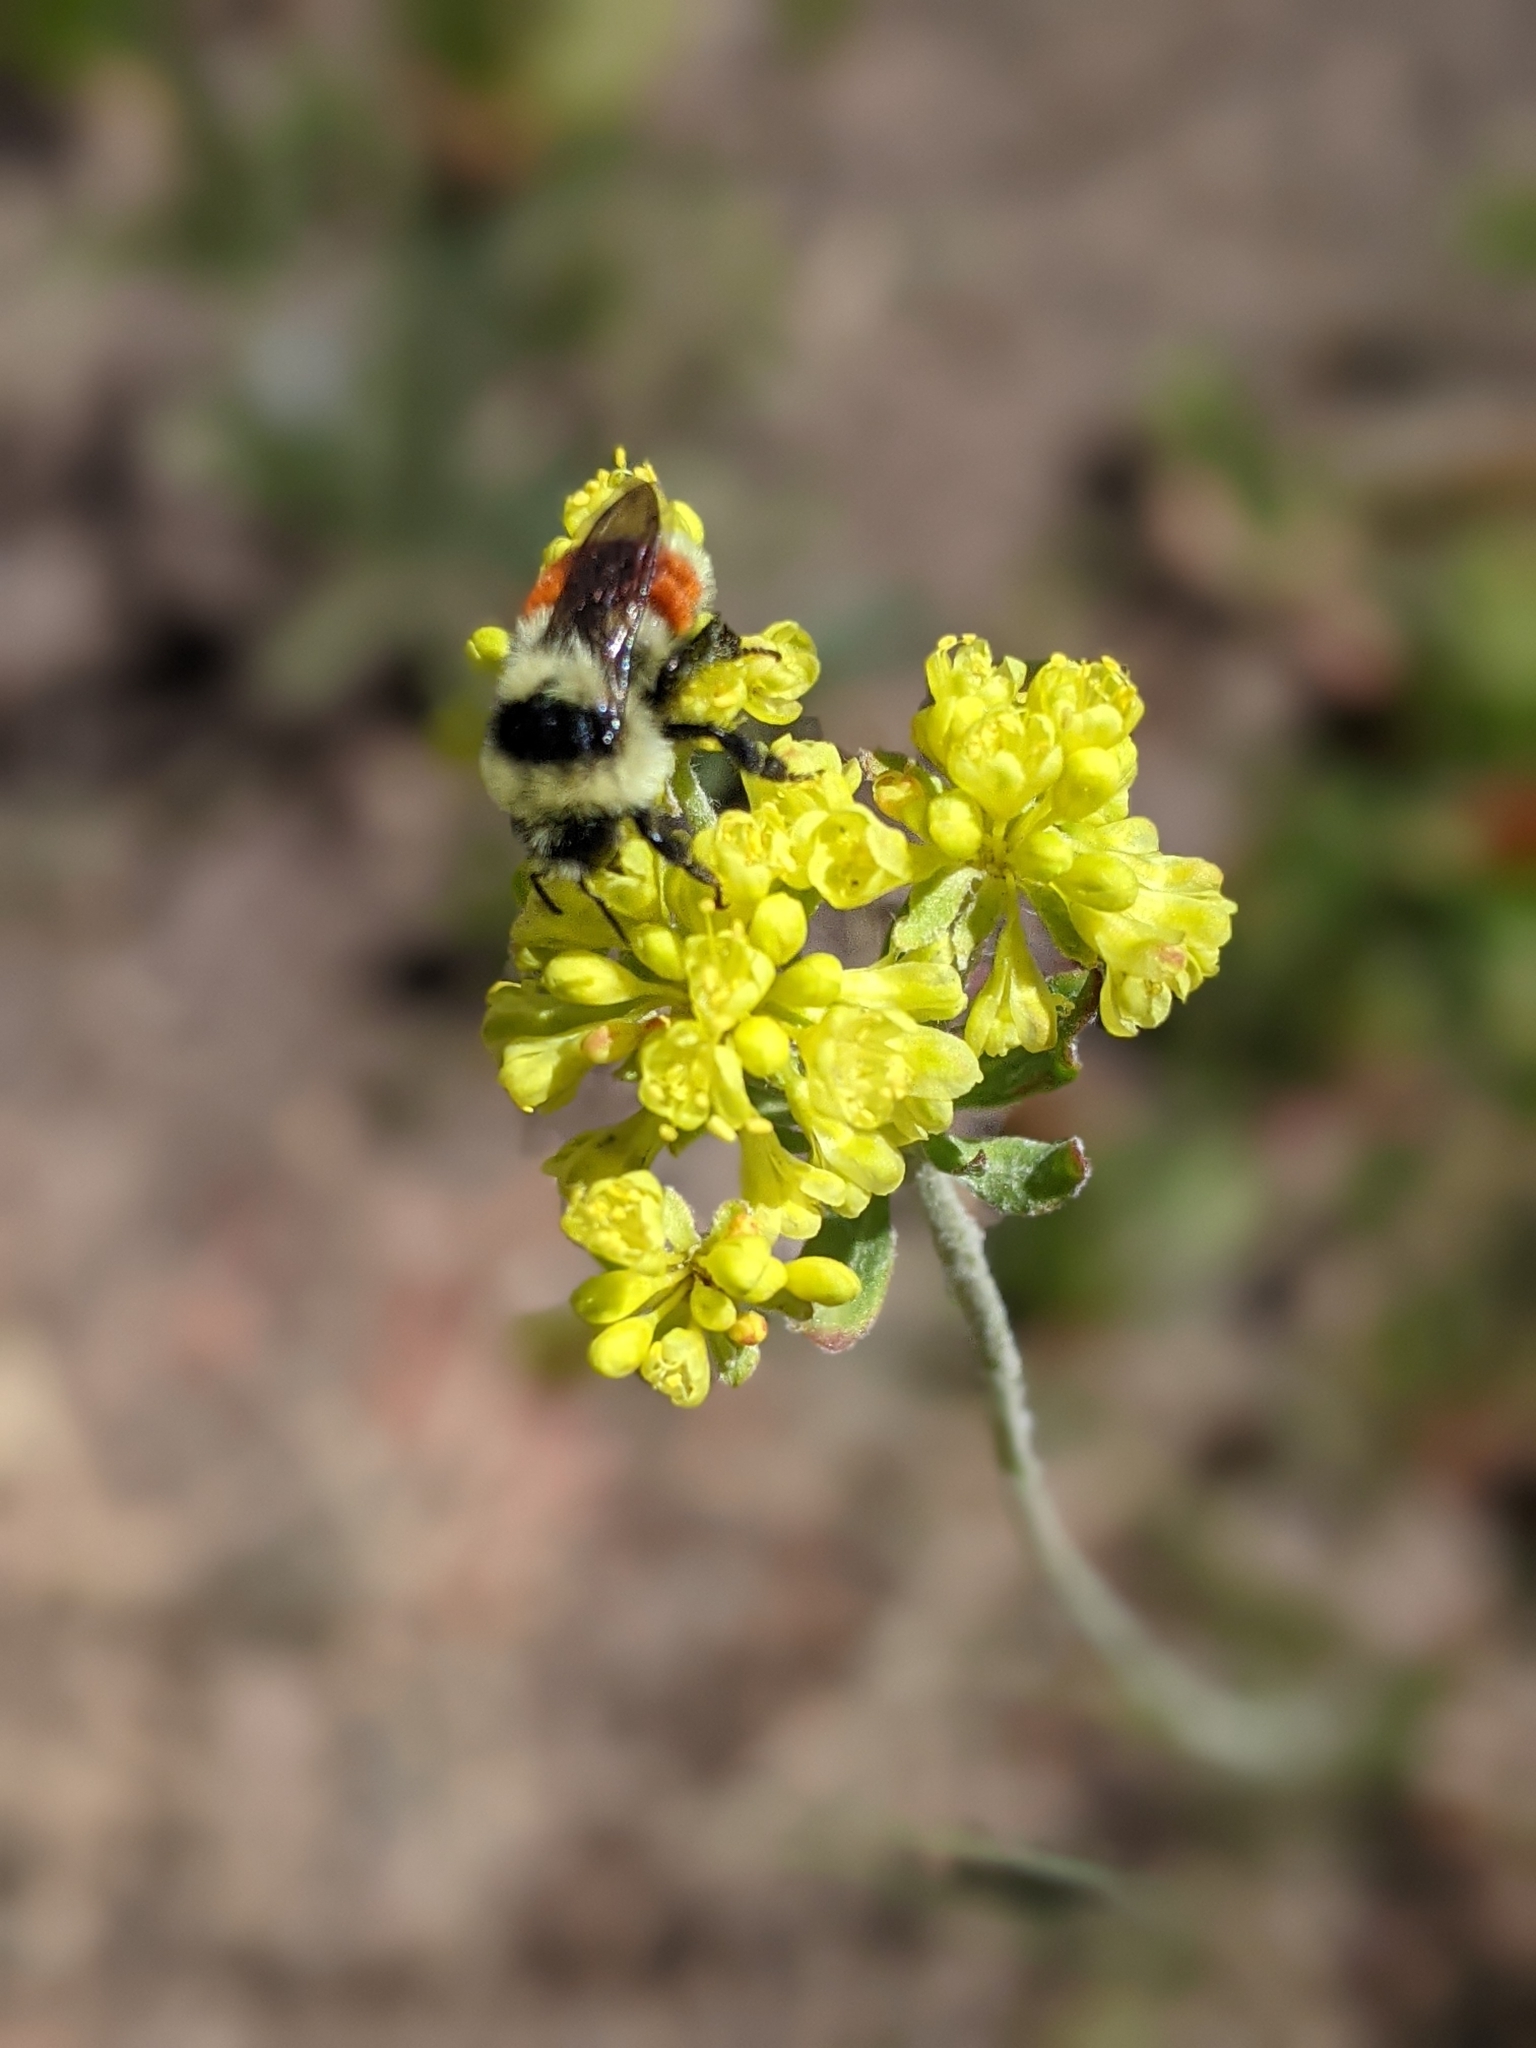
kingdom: Animalia
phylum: Arthropoda
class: Insecta
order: Hymenoptera
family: Apidae
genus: Bombus
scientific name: Bombus bifarius
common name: Two form bumble bee
